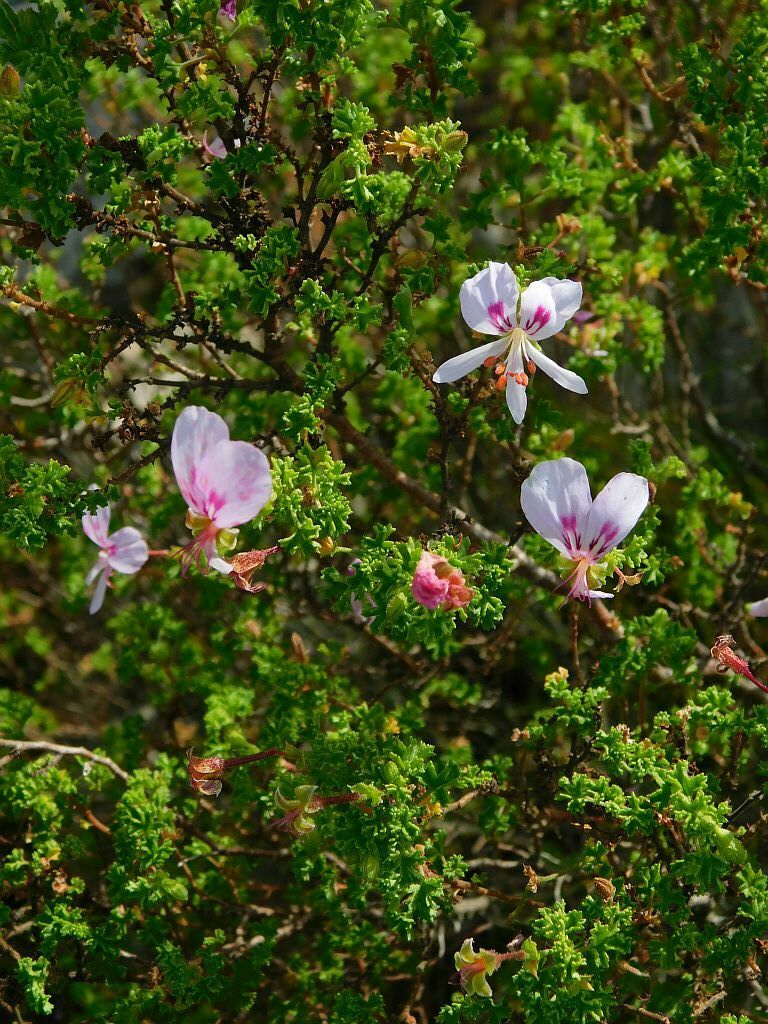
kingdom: Plantae
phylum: Tracheophyta
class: Magnoliopsida
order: Geraniales
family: Geraniaceae
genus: Pelargonium
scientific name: Pelargonium crispum
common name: Crisped-leaf pelargonium
